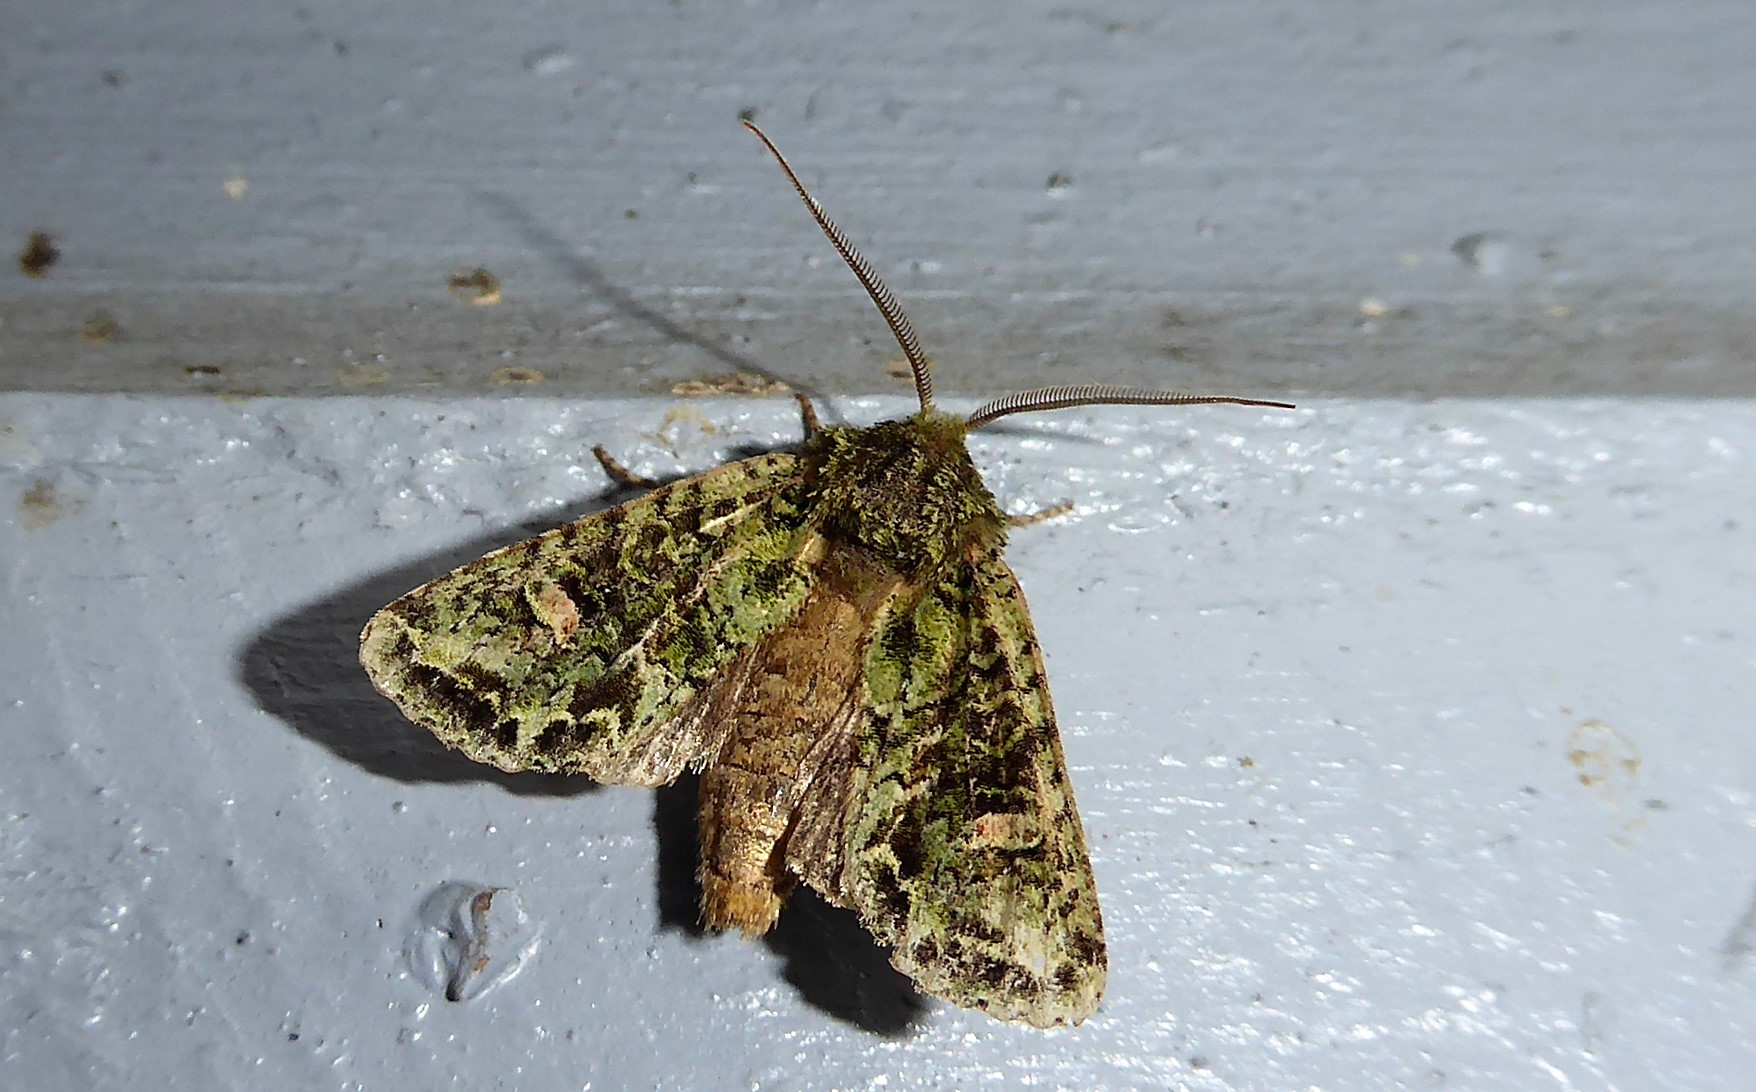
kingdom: Animalia
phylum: Arthropoda
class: Insecta
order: Lepidoptera
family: Noctuidae
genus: Ichneutica
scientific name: Ichneutica
